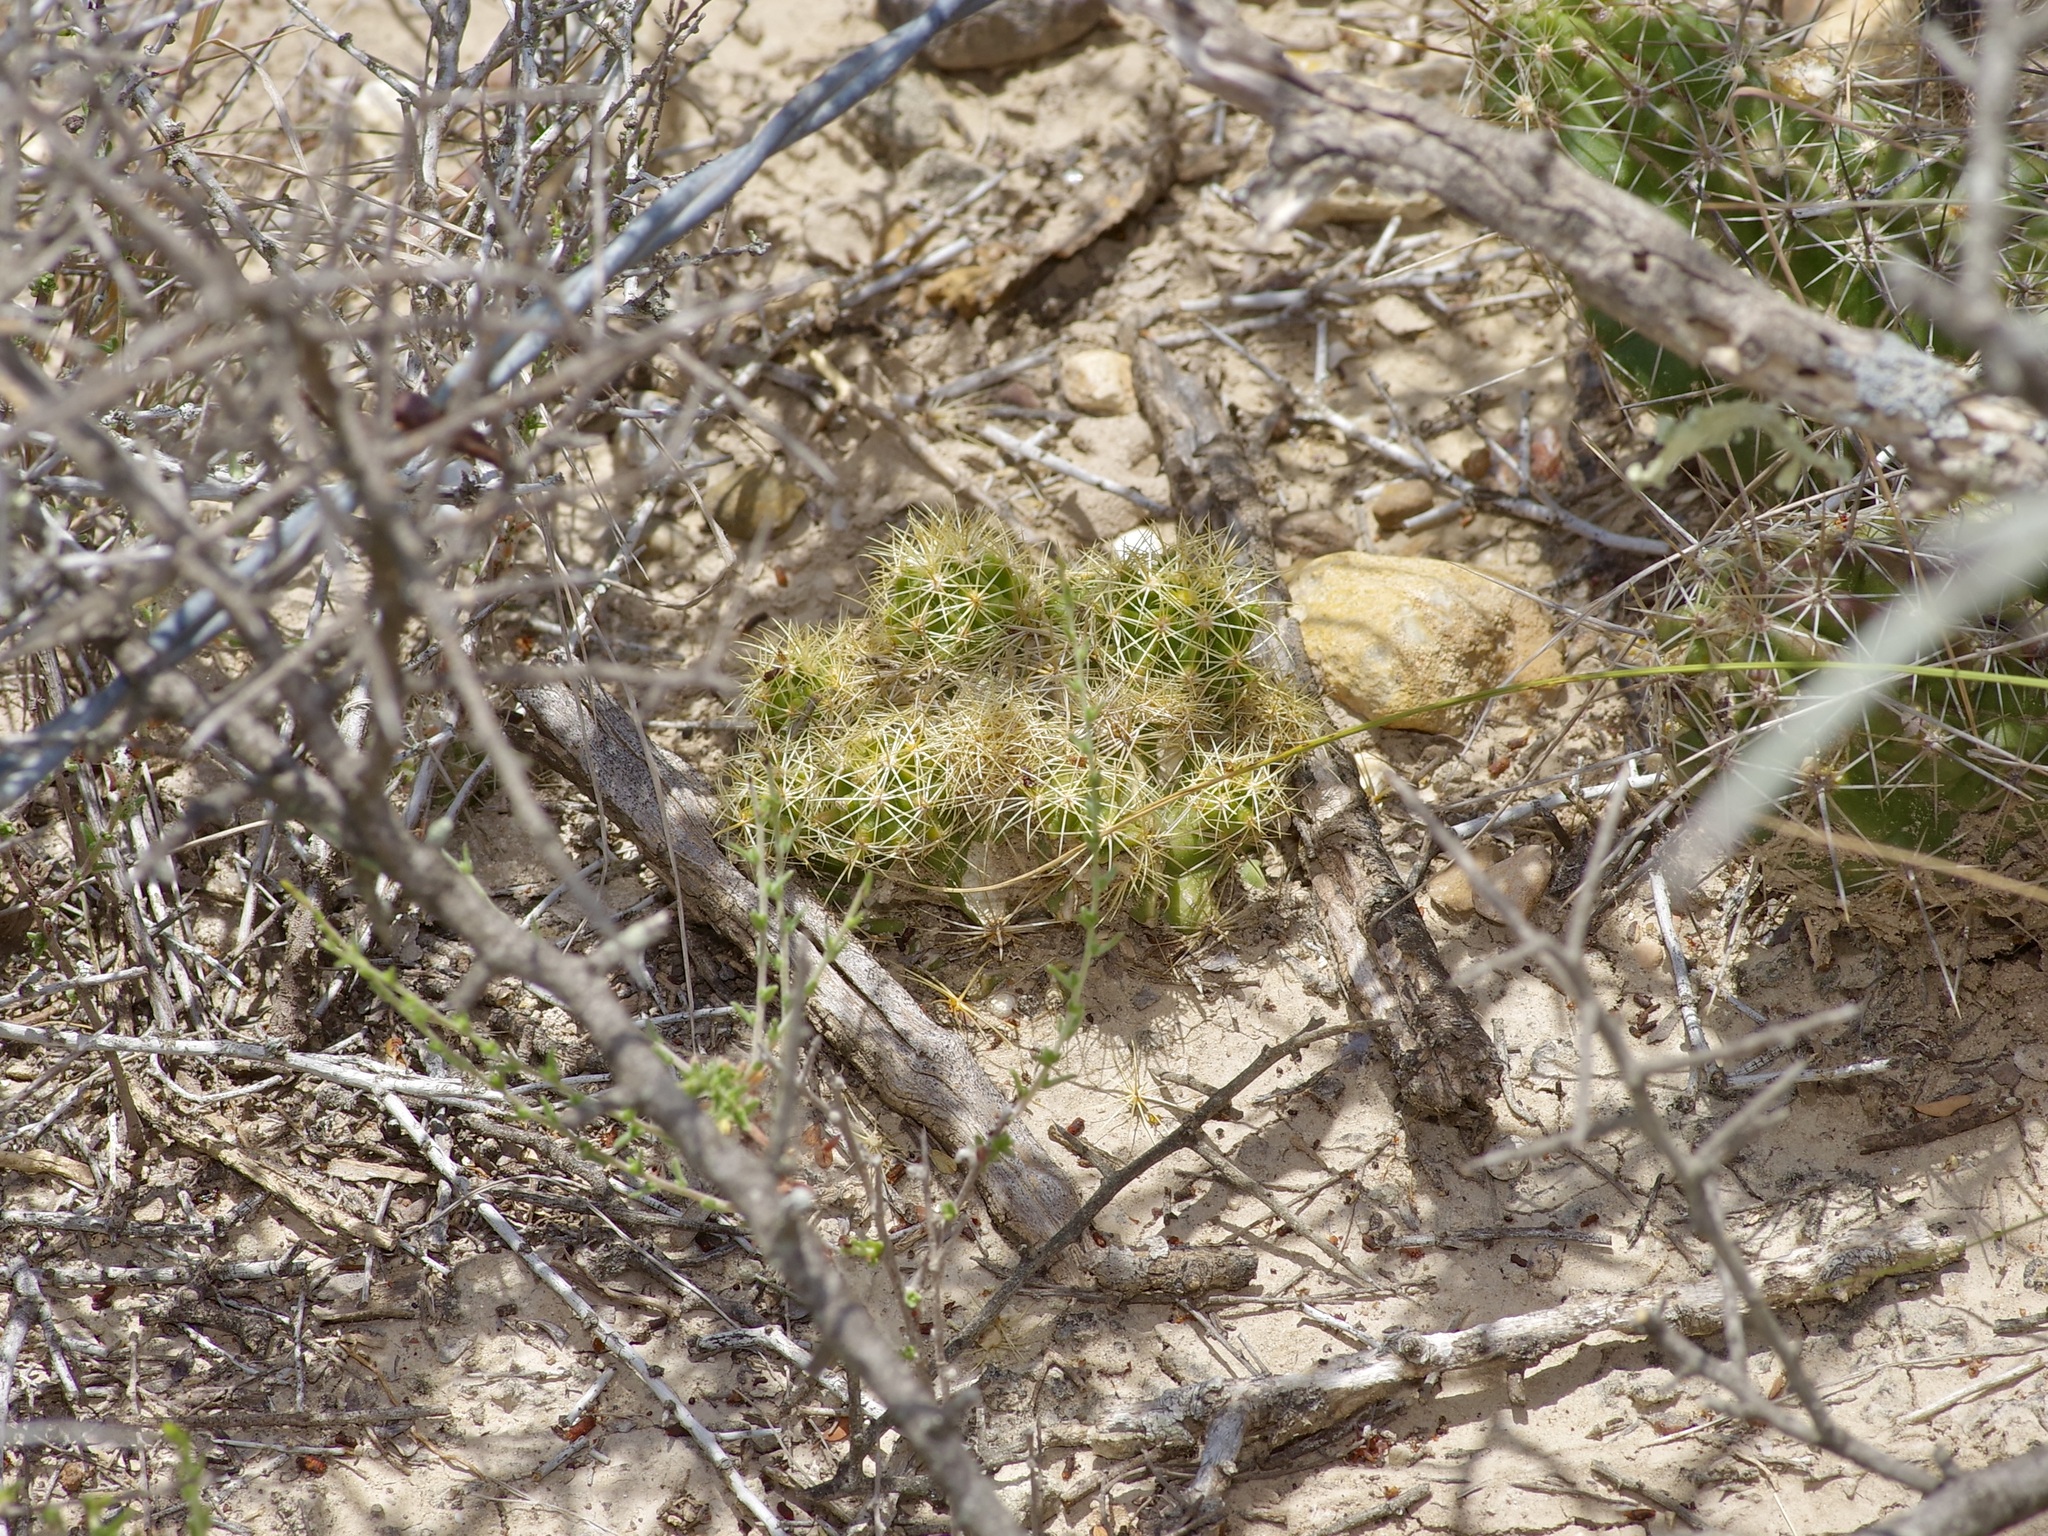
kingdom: Plantae
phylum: Tracheophyta
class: Magnoliopsida
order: Caryophyllales
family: Cactaceae
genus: Thelocactus
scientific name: Thelocactus setispinus
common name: Miniature barrel cactus
